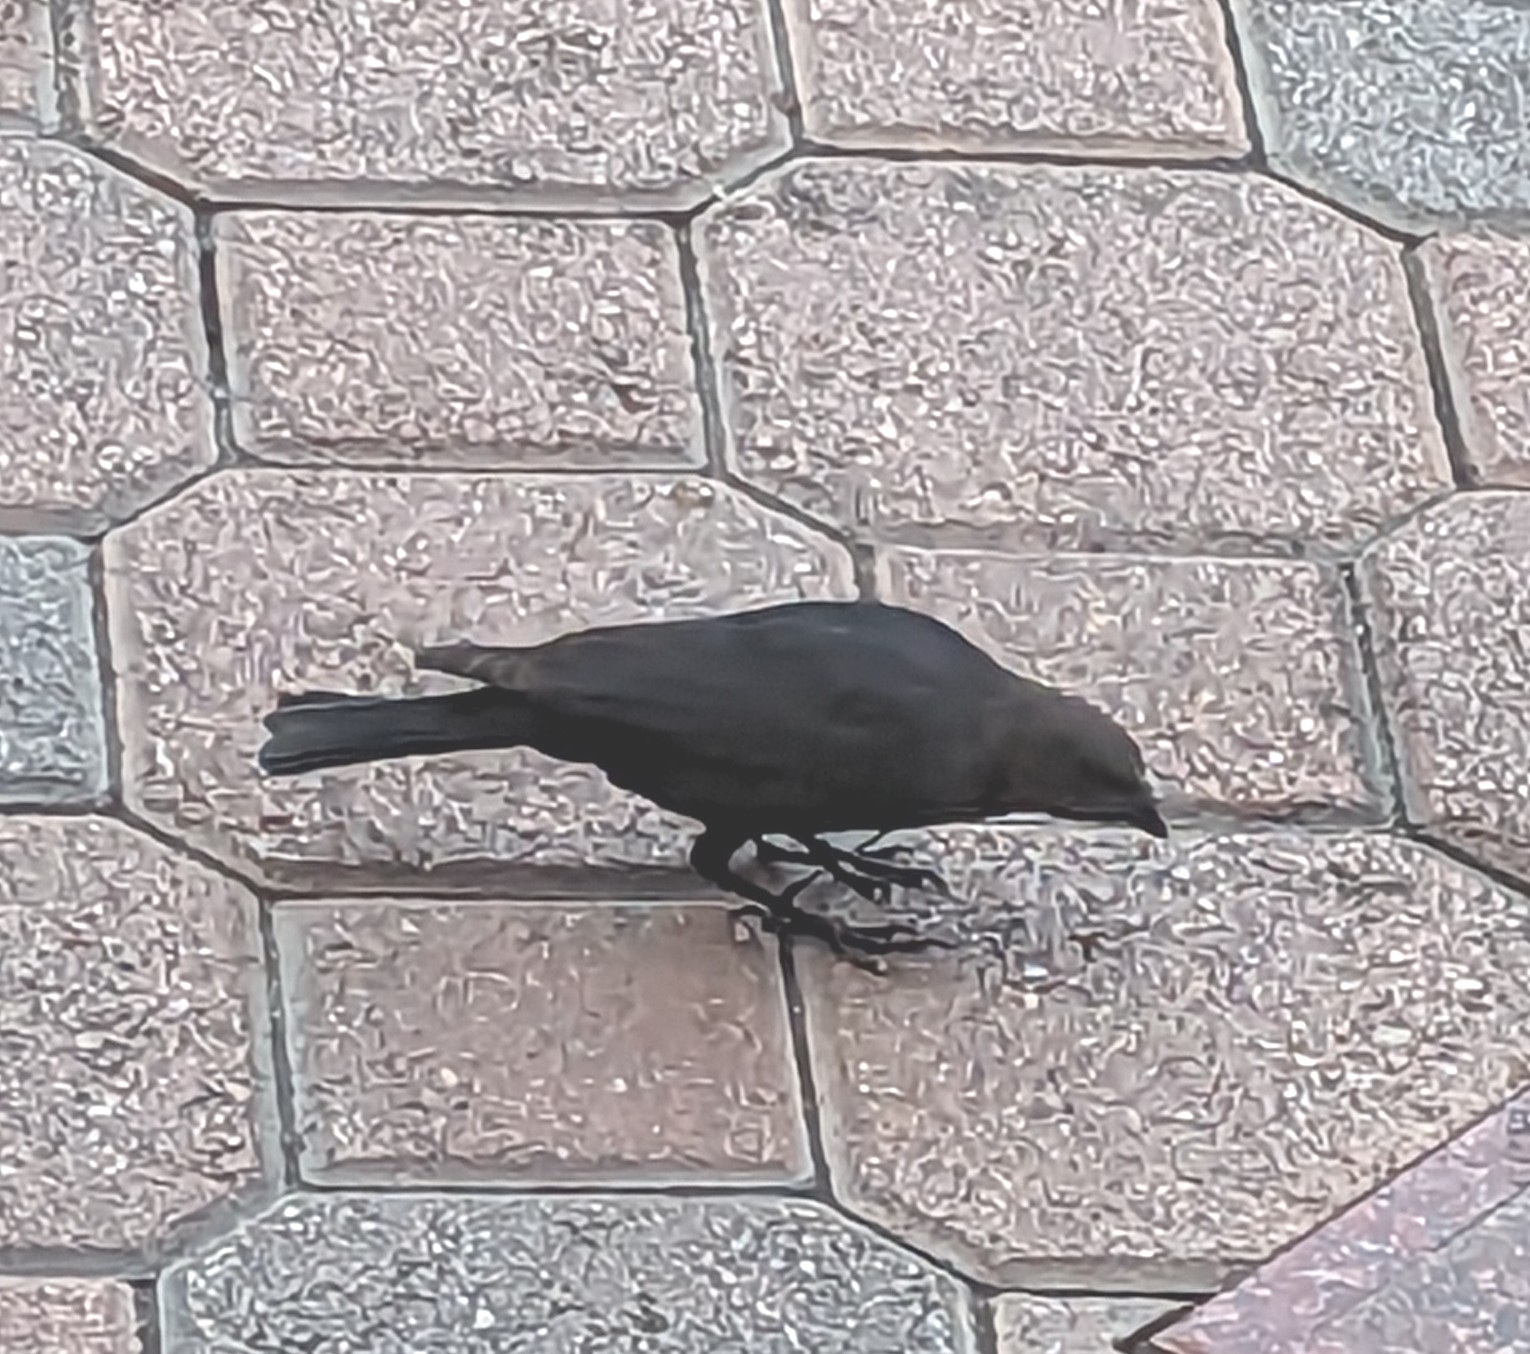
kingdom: Animalia
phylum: Chordata
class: Aves
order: Passeriformes
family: Icteridae
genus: Molothrus
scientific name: Molothrus ater
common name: Brown-headed cowbird
